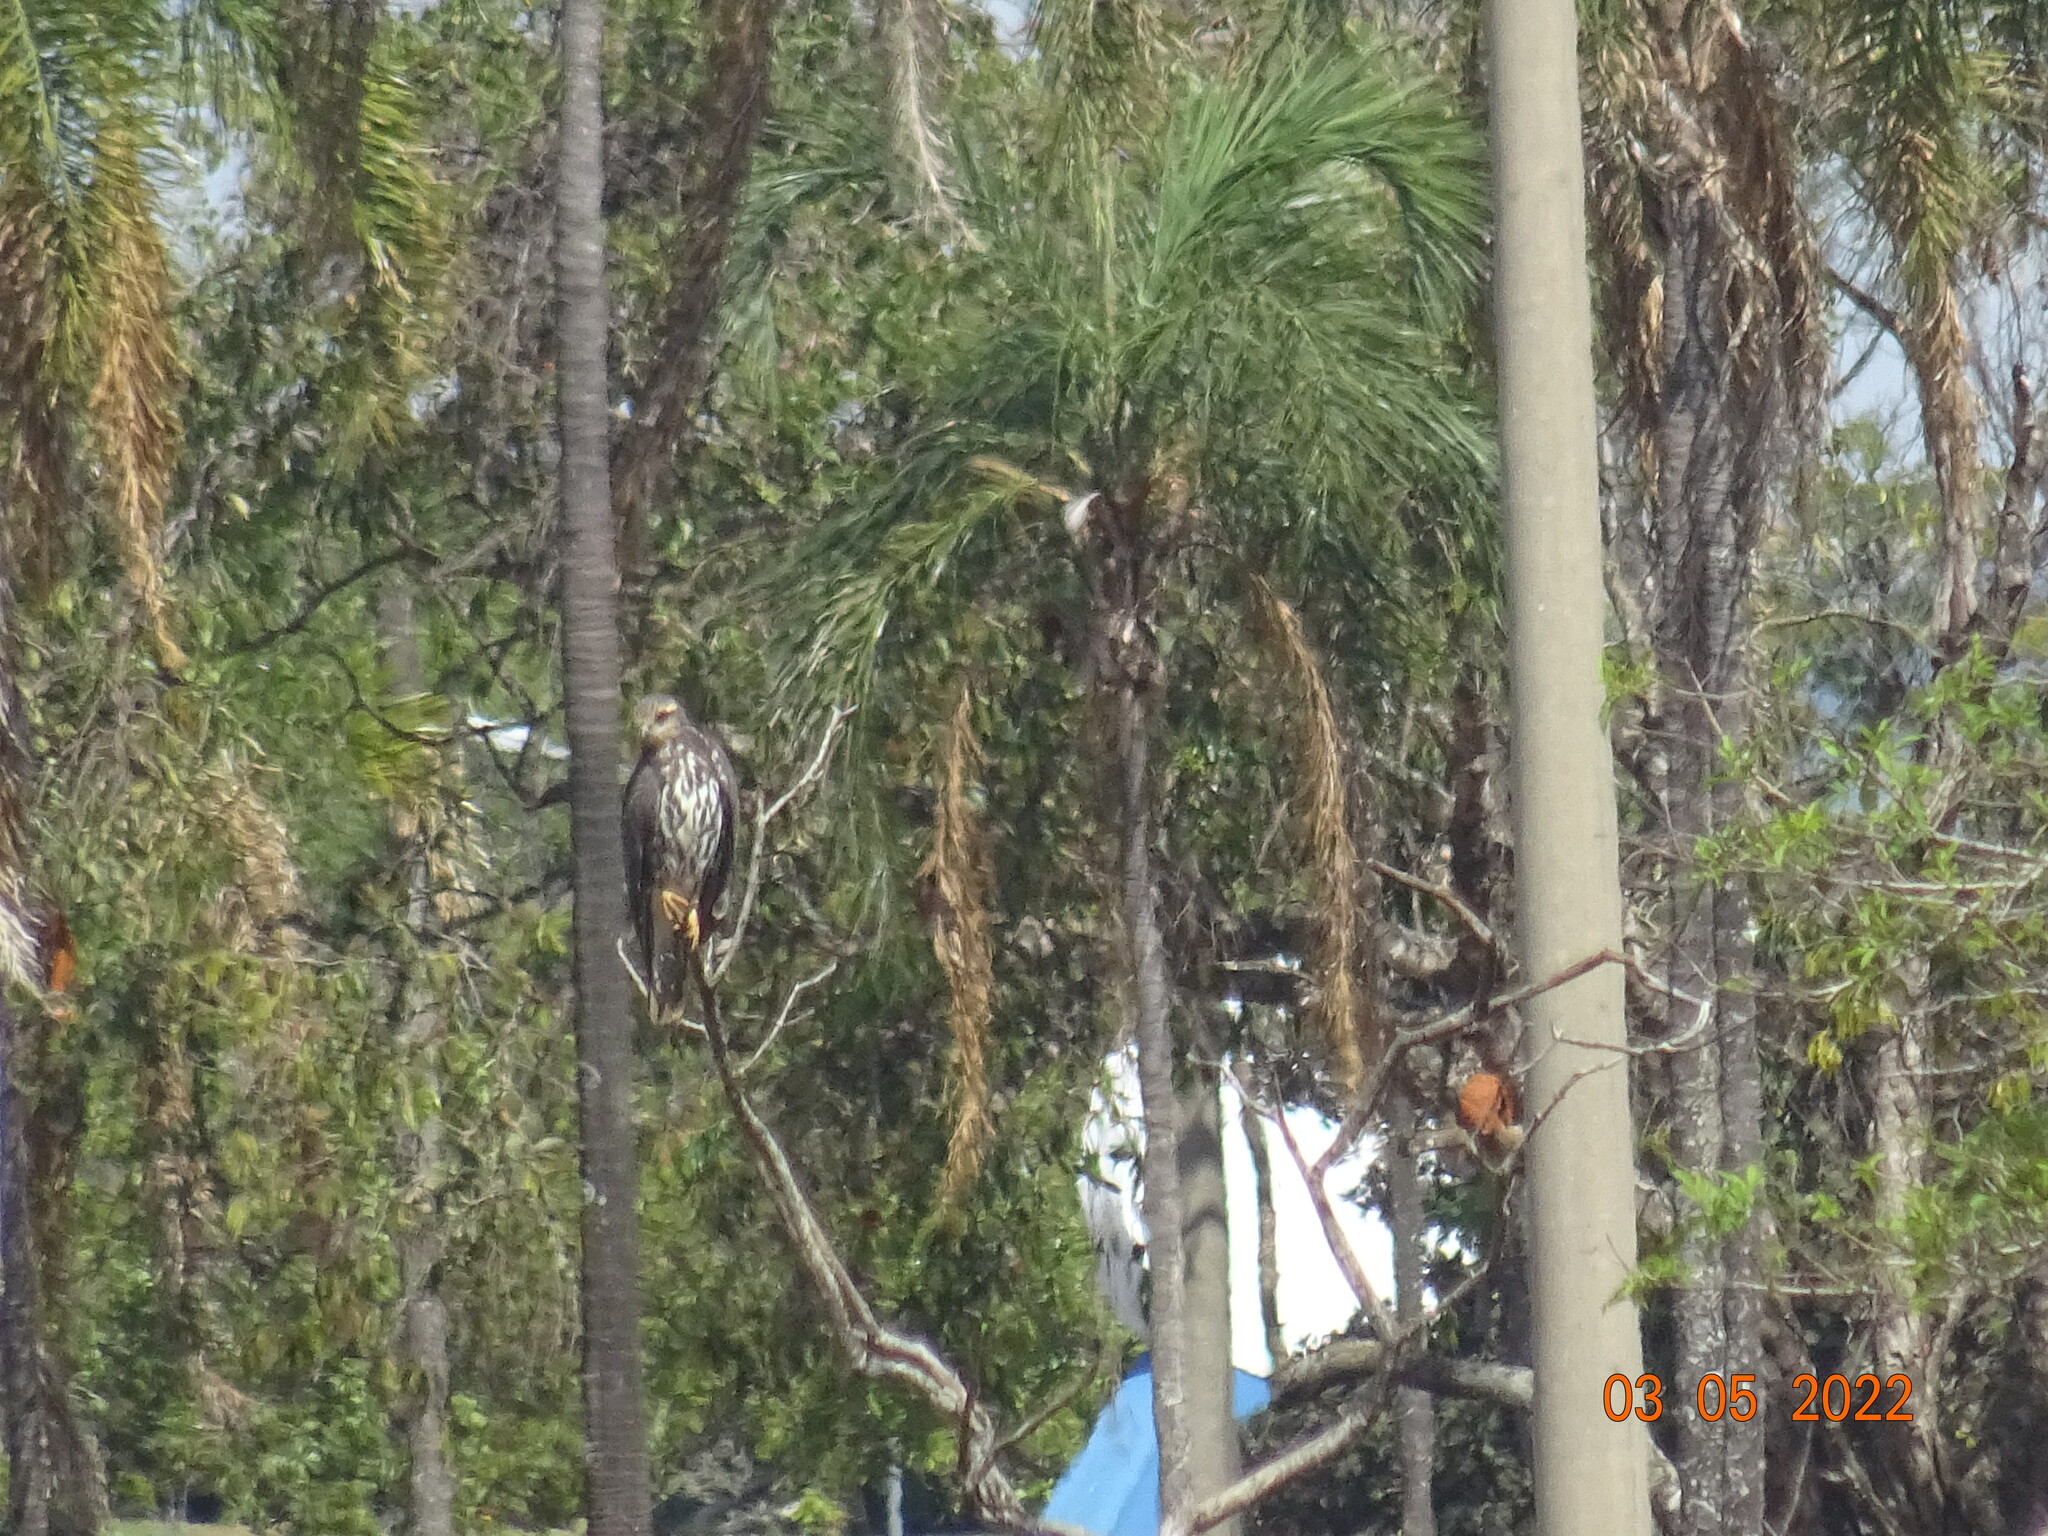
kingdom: Animalia
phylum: Chordata
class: Aves
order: Accipitriformes
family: Accipitridae
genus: Rostrhamus
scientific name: Rostrhamus sociabilis
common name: Snail kite
